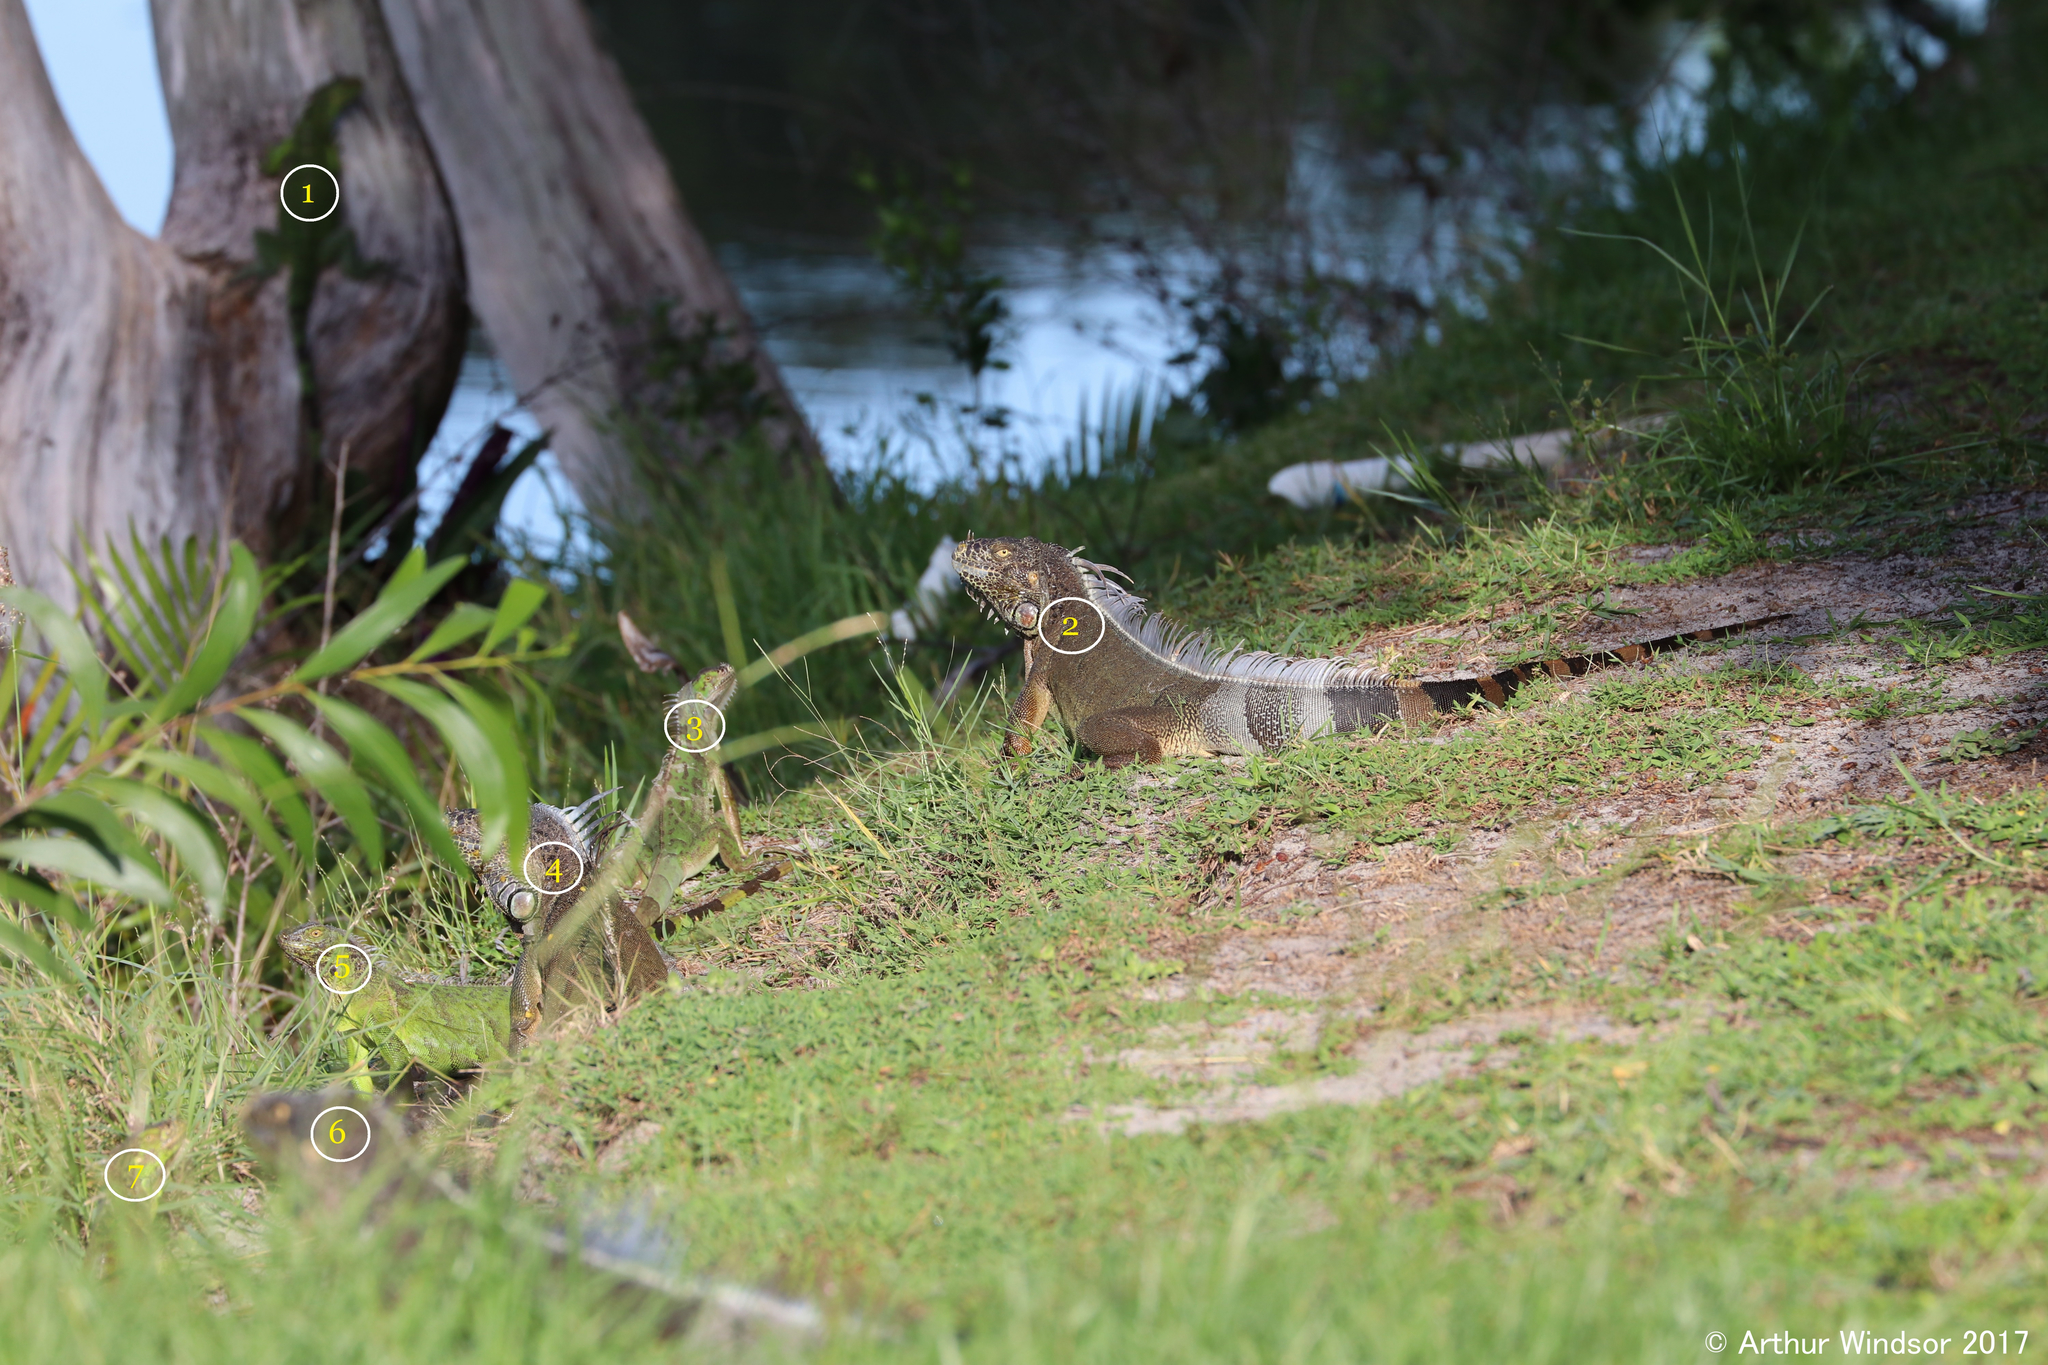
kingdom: Animalia
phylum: Chordata
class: Squamata
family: Iguanidae
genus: Iguana
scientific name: Iguana iguana
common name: Green iguana
